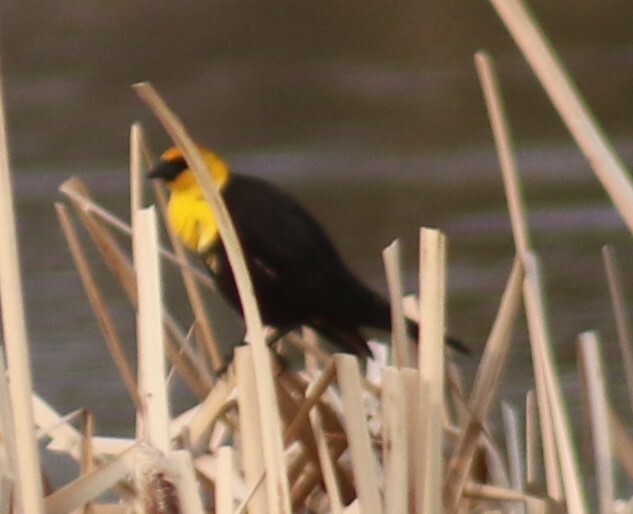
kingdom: Animalia
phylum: Chordata
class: Aves
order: Passeriformes
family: Icteridae
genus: Xanthocephalus
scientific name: Xanthocephalus xanthocephalus
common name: Yellow-headed blackbird
